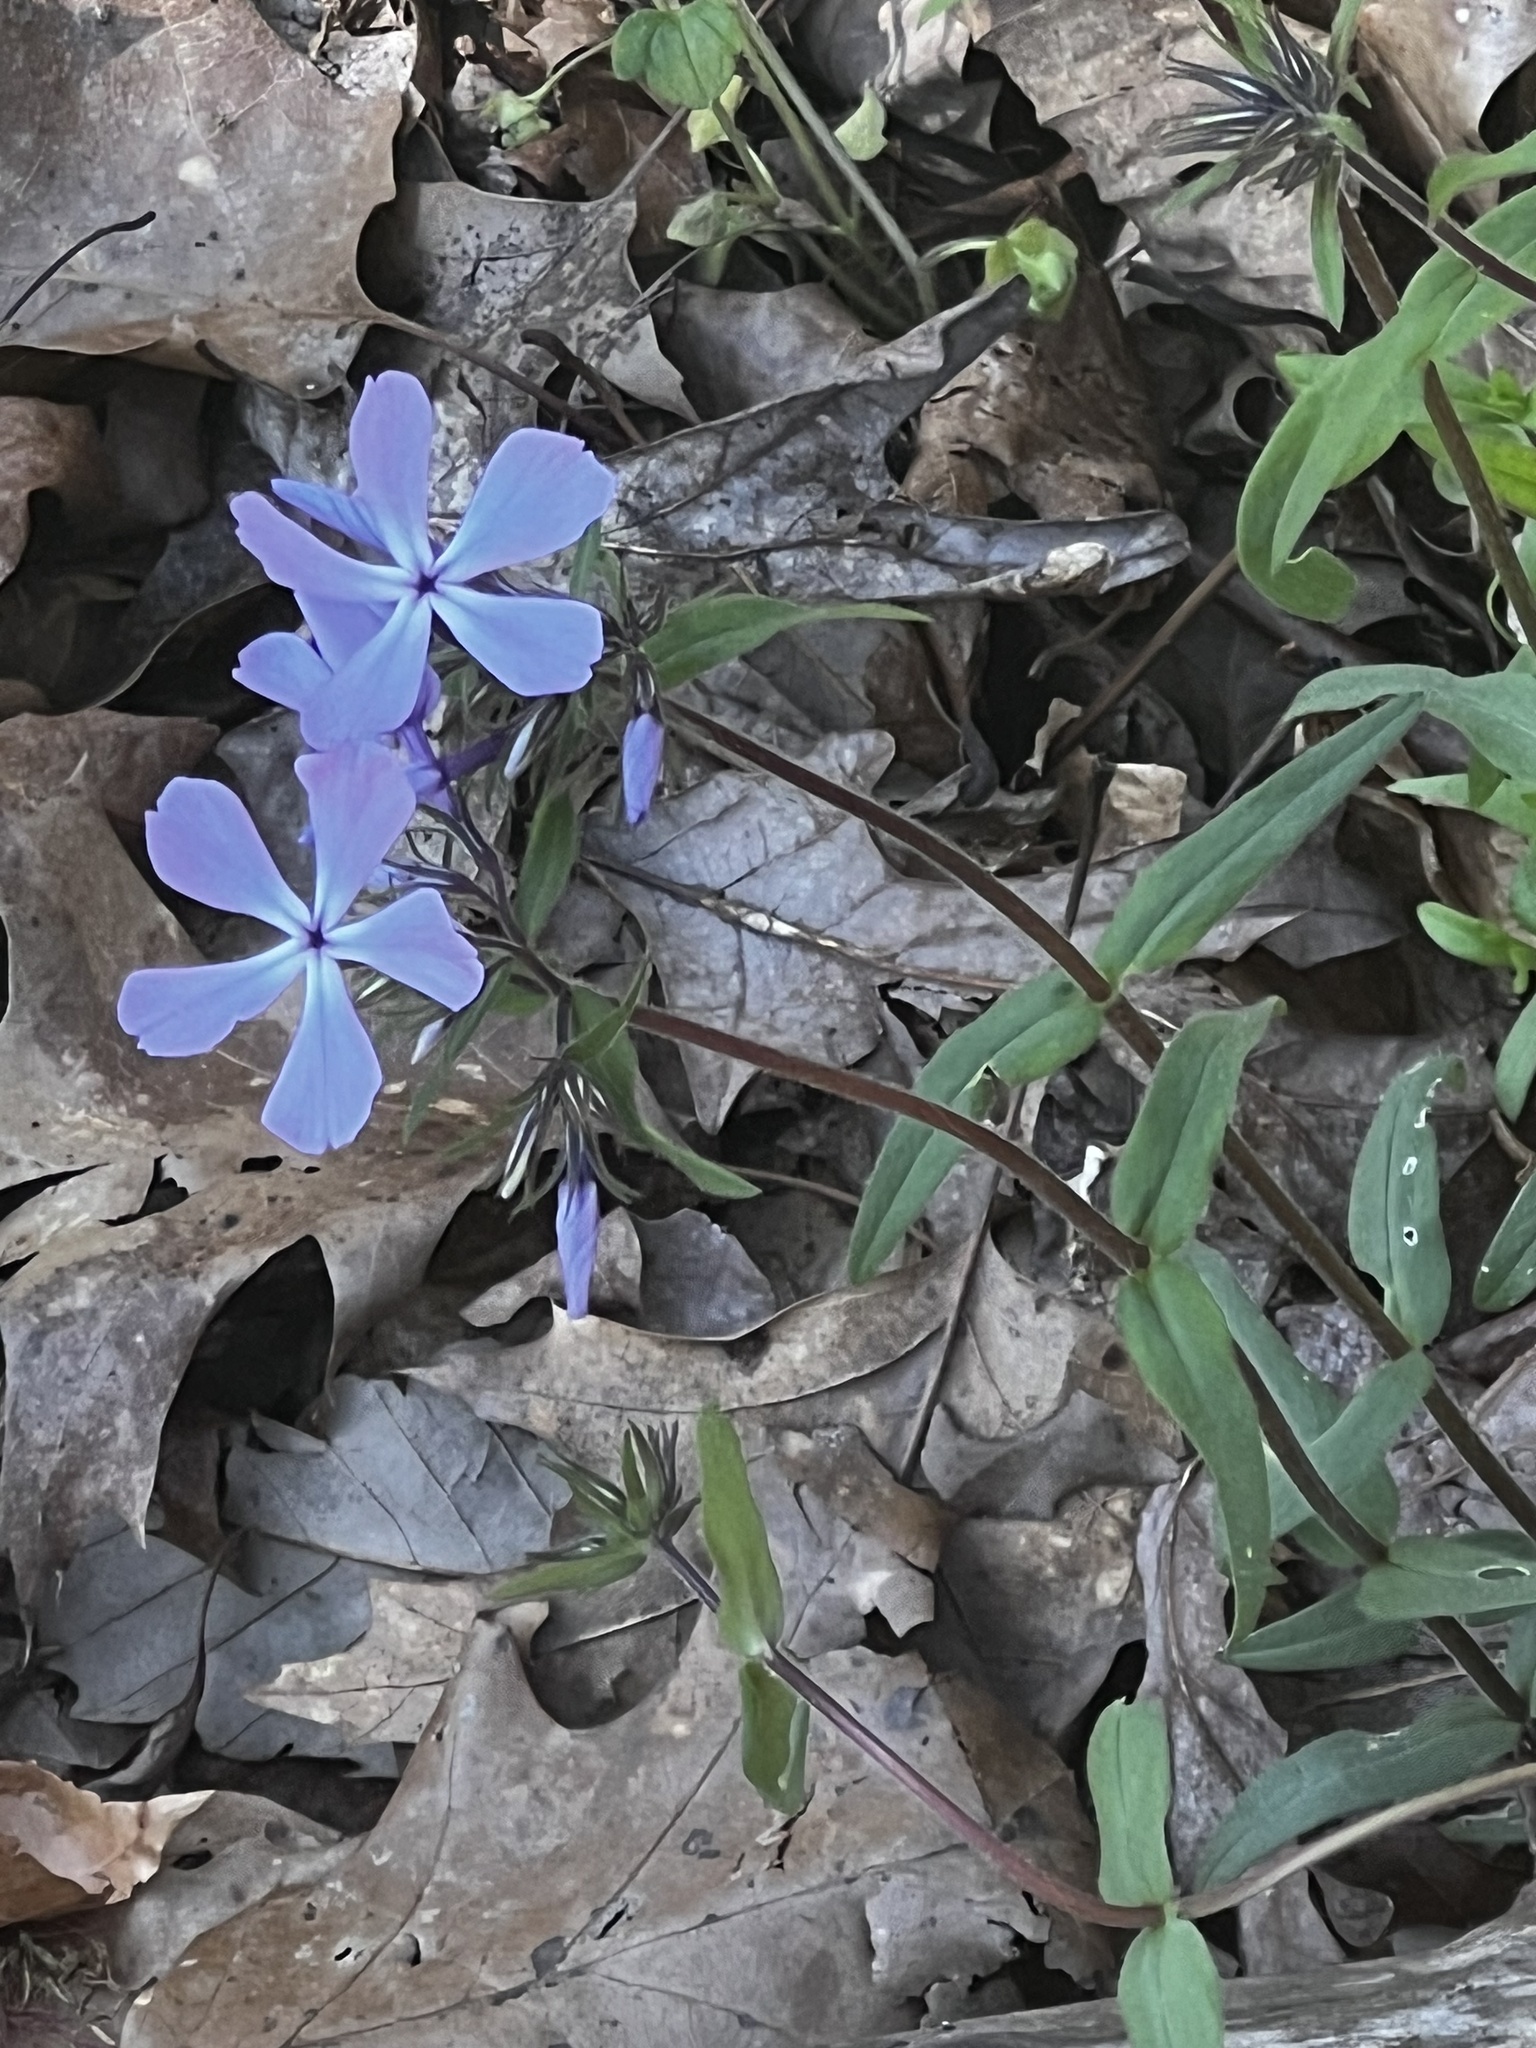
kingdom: Plantae
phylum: Tracheophyta
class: Magnoliopsida
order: Ericales
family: Polemoniaceae
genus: Phlox
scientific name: Phlox divaricata
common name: Blue phlox
